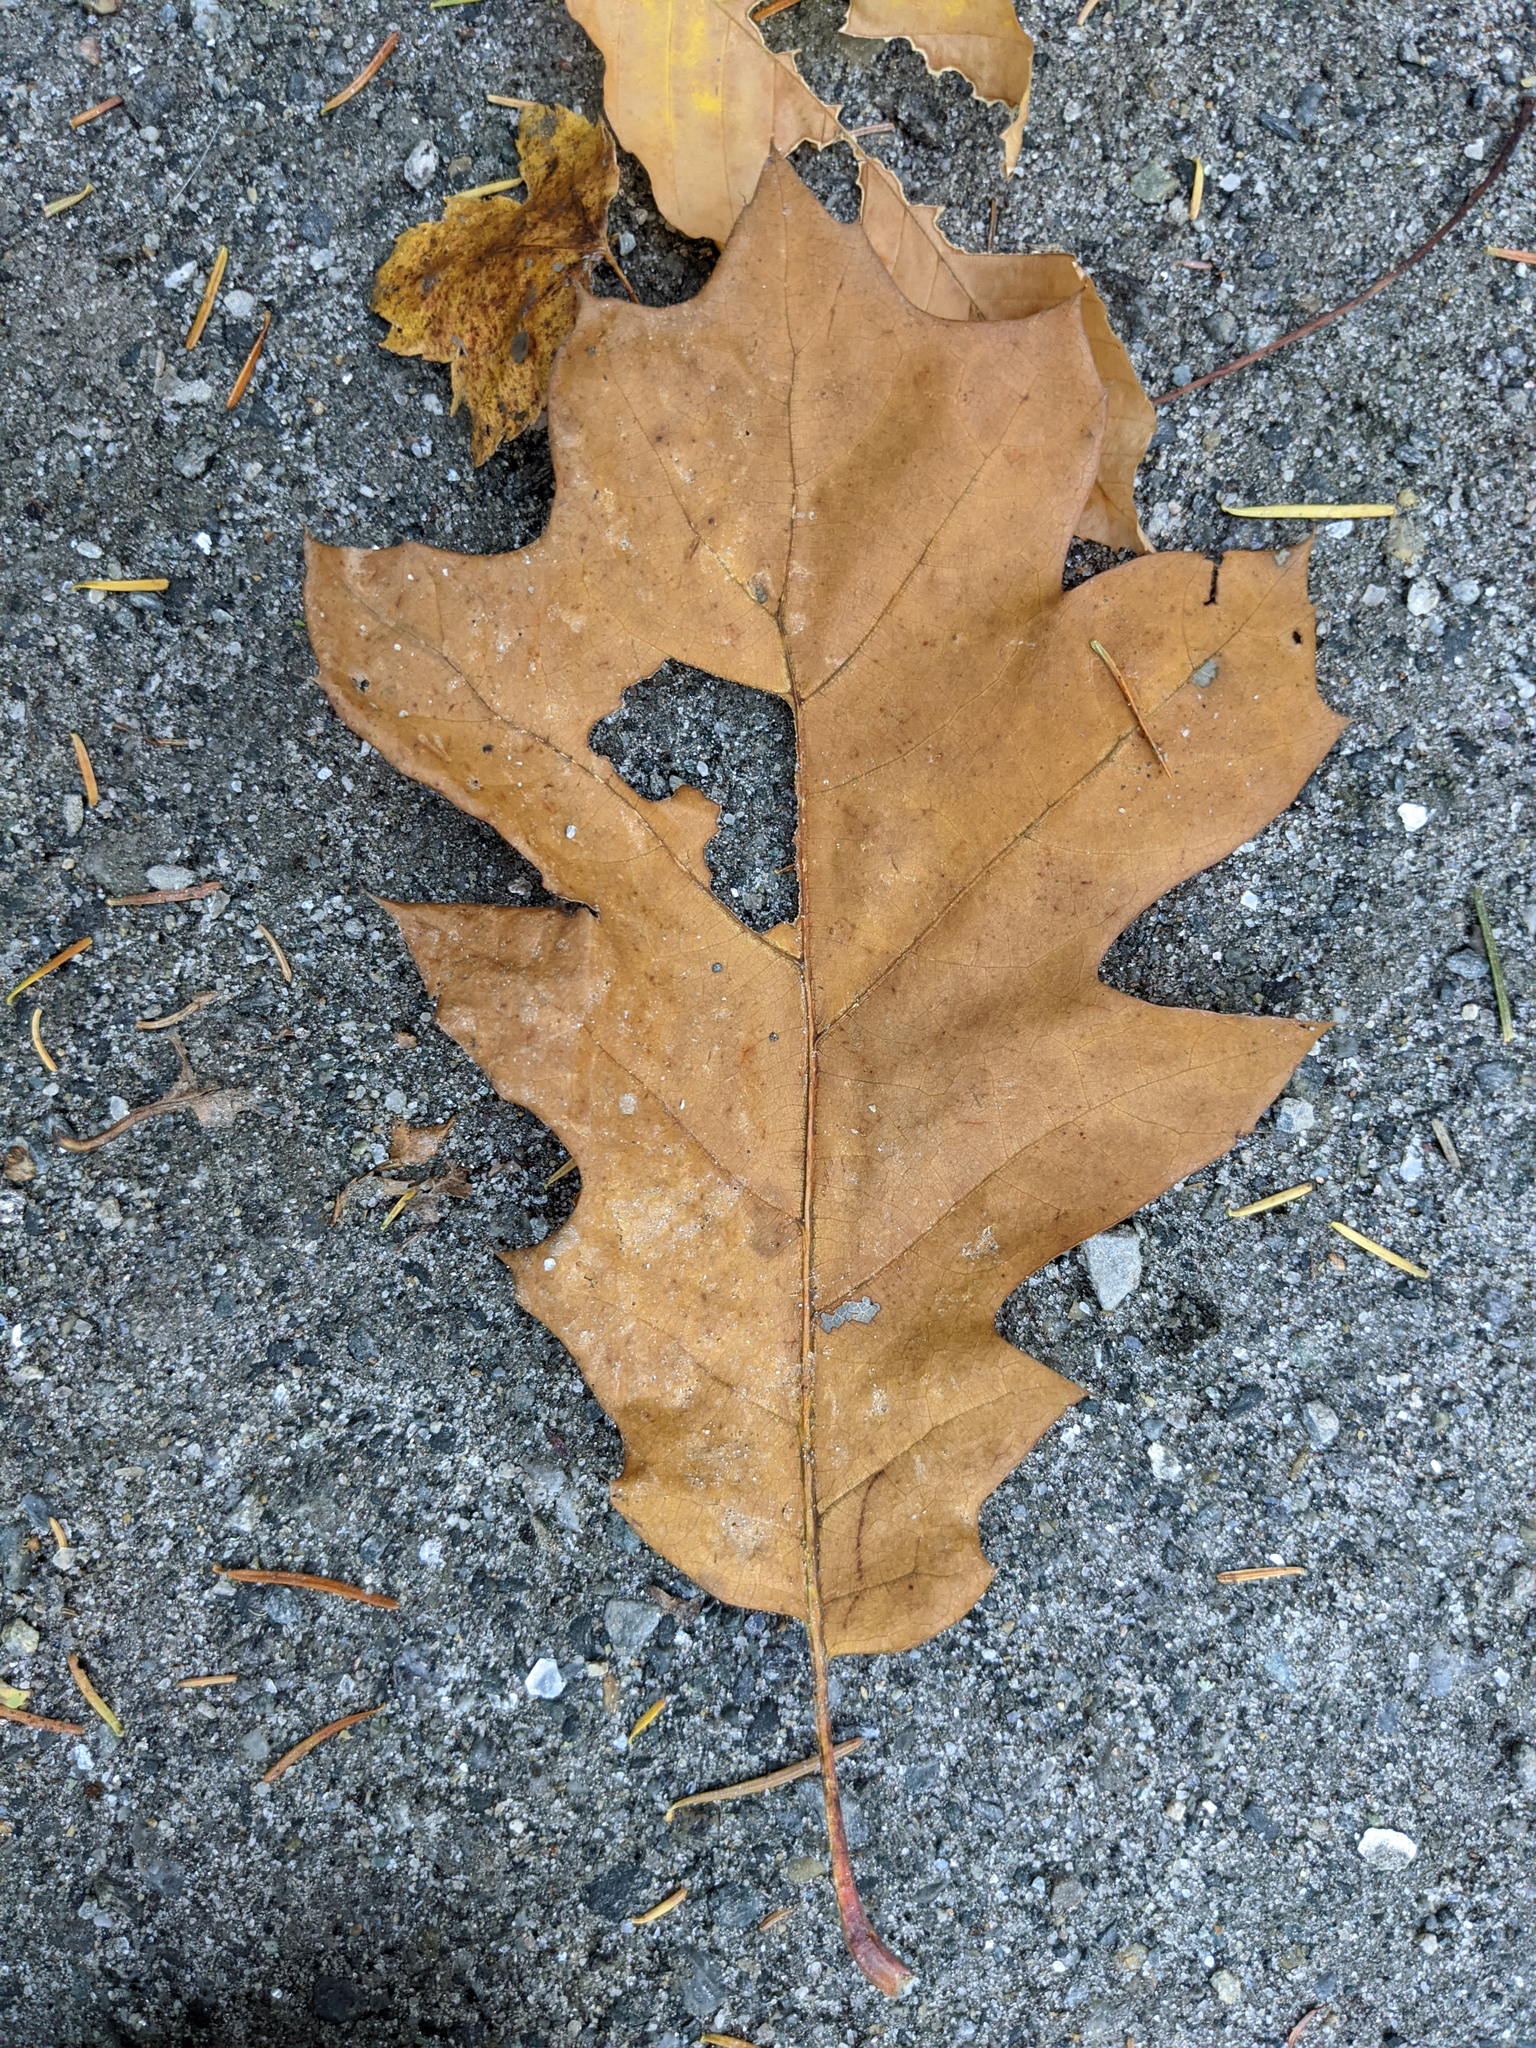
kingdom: Plantae
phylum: Tracheophyta
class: Magnoliopsida
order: Fagales
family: Fagaceae
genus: Quercus
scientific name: Quercus rubra
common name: Red oak
